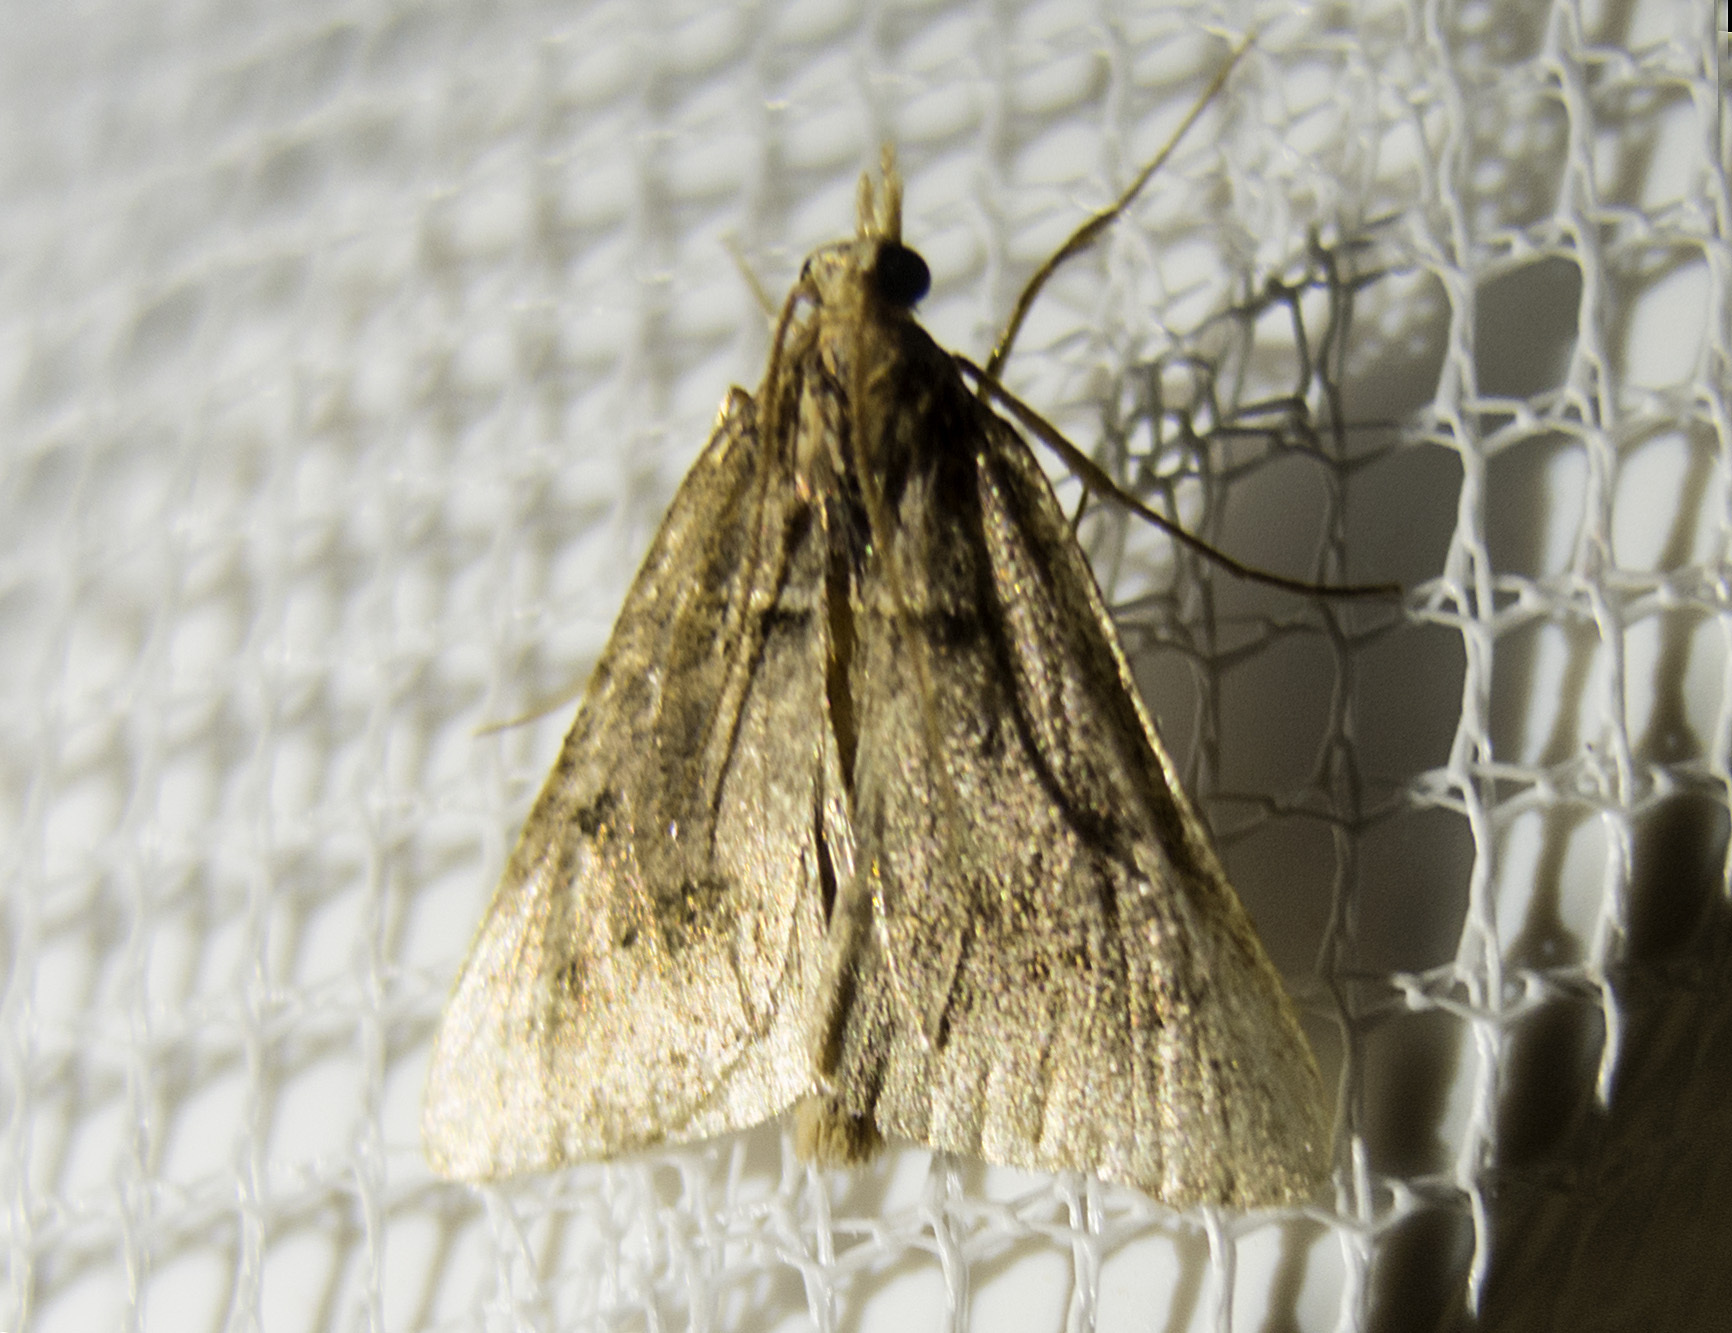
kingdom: Animalia
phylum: Arthropoda
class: Insecta
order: Lepidoptera
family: Pyralidae
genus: Stemmatophora
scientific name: Stemmatophora brunnealis
